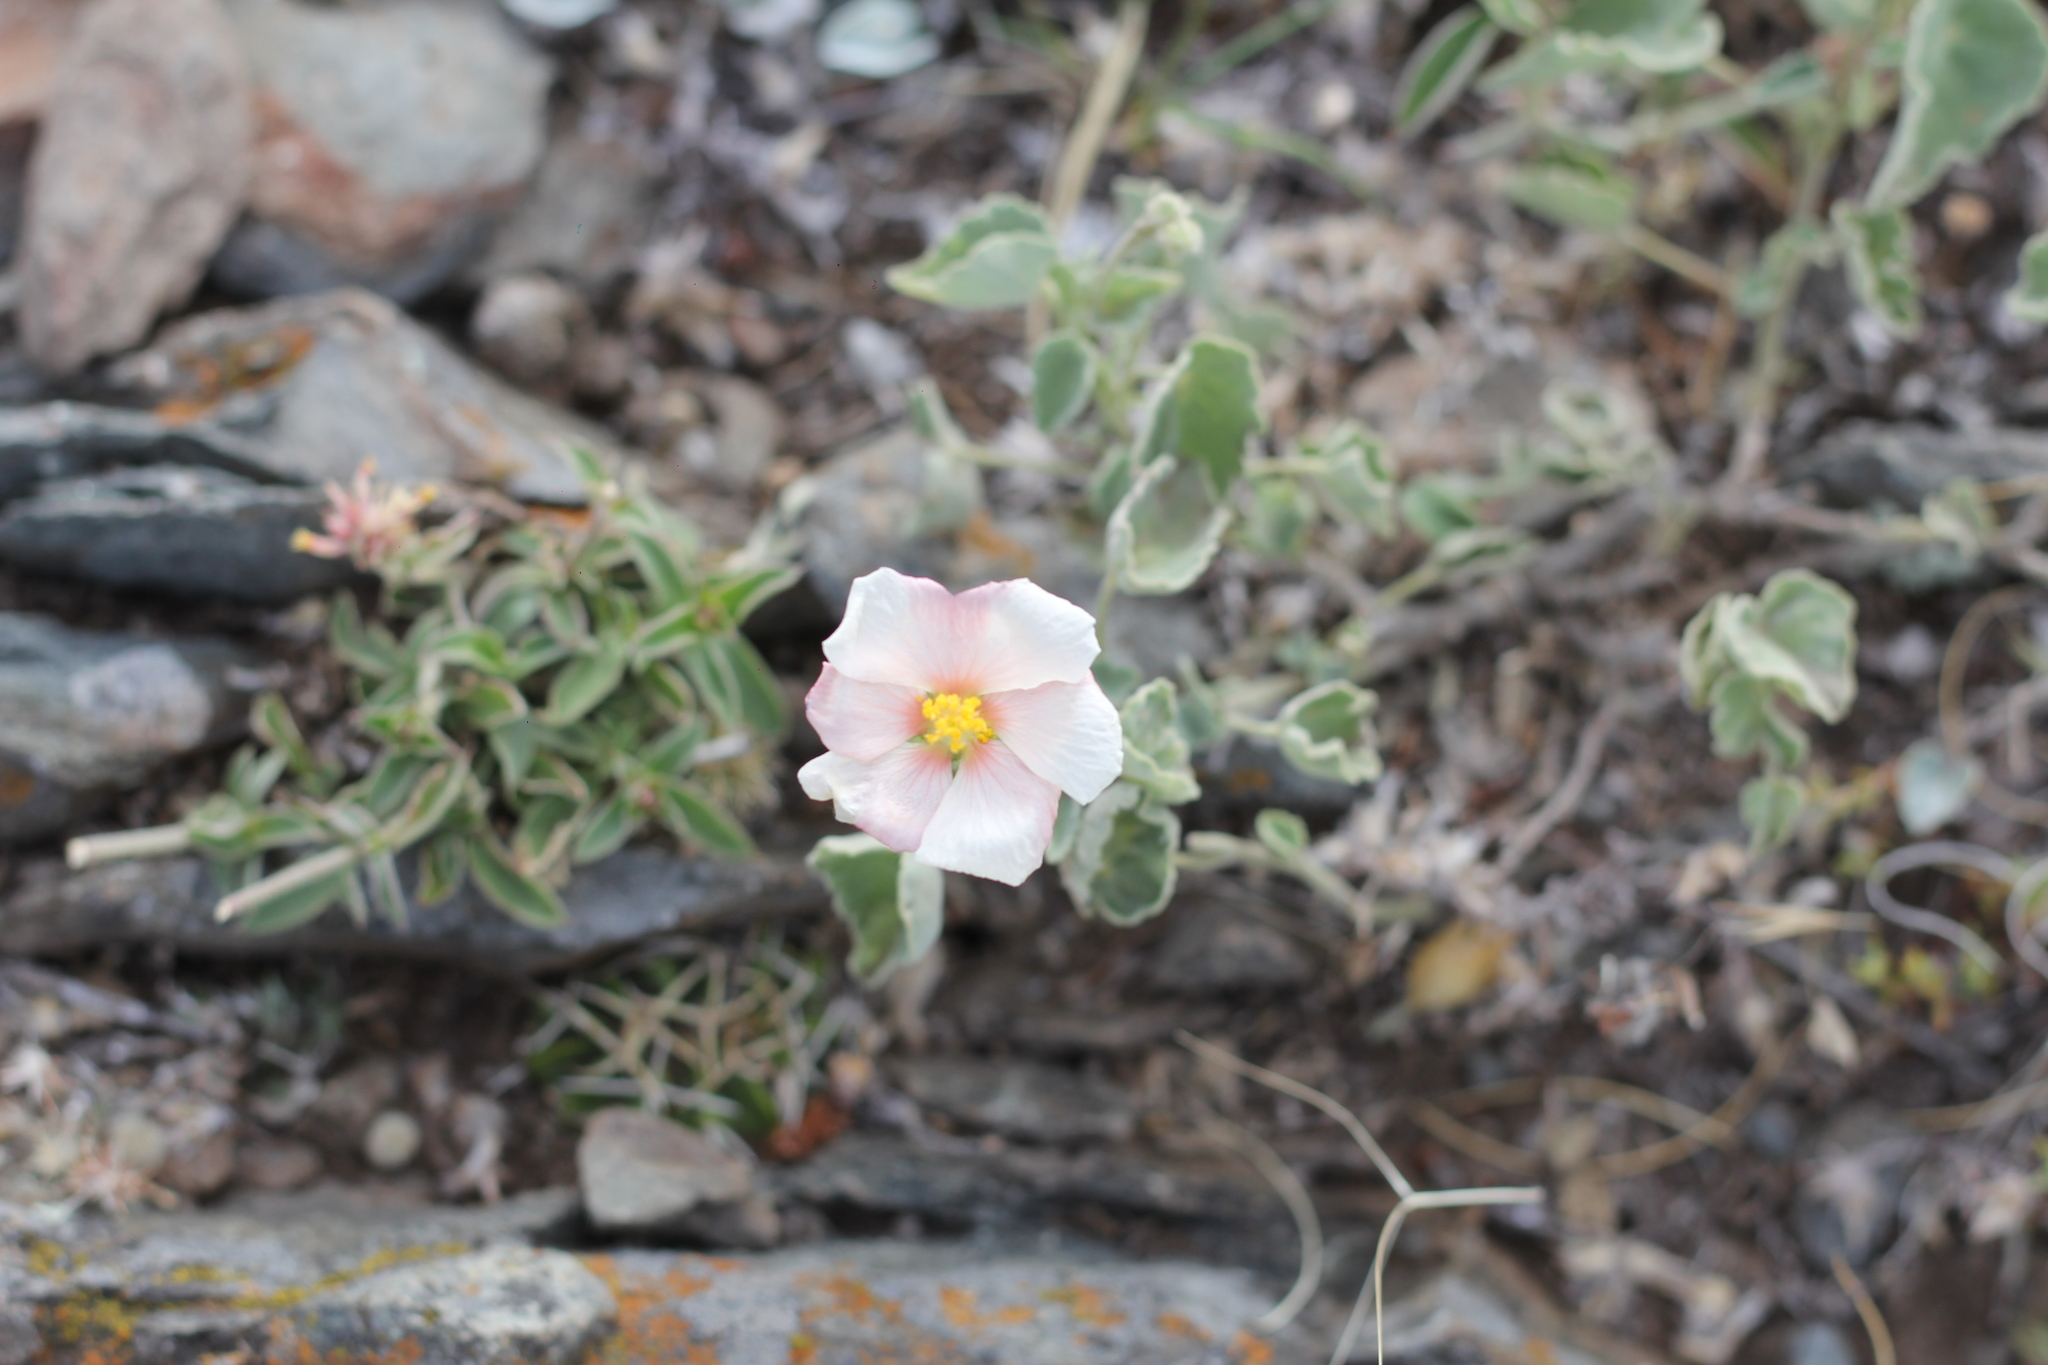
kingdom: Plantae
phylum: Tracheophyta
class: Magnoliopsida
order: Malvales
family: Malvaceae
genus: Abutilon
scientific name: Abutilon terminale
